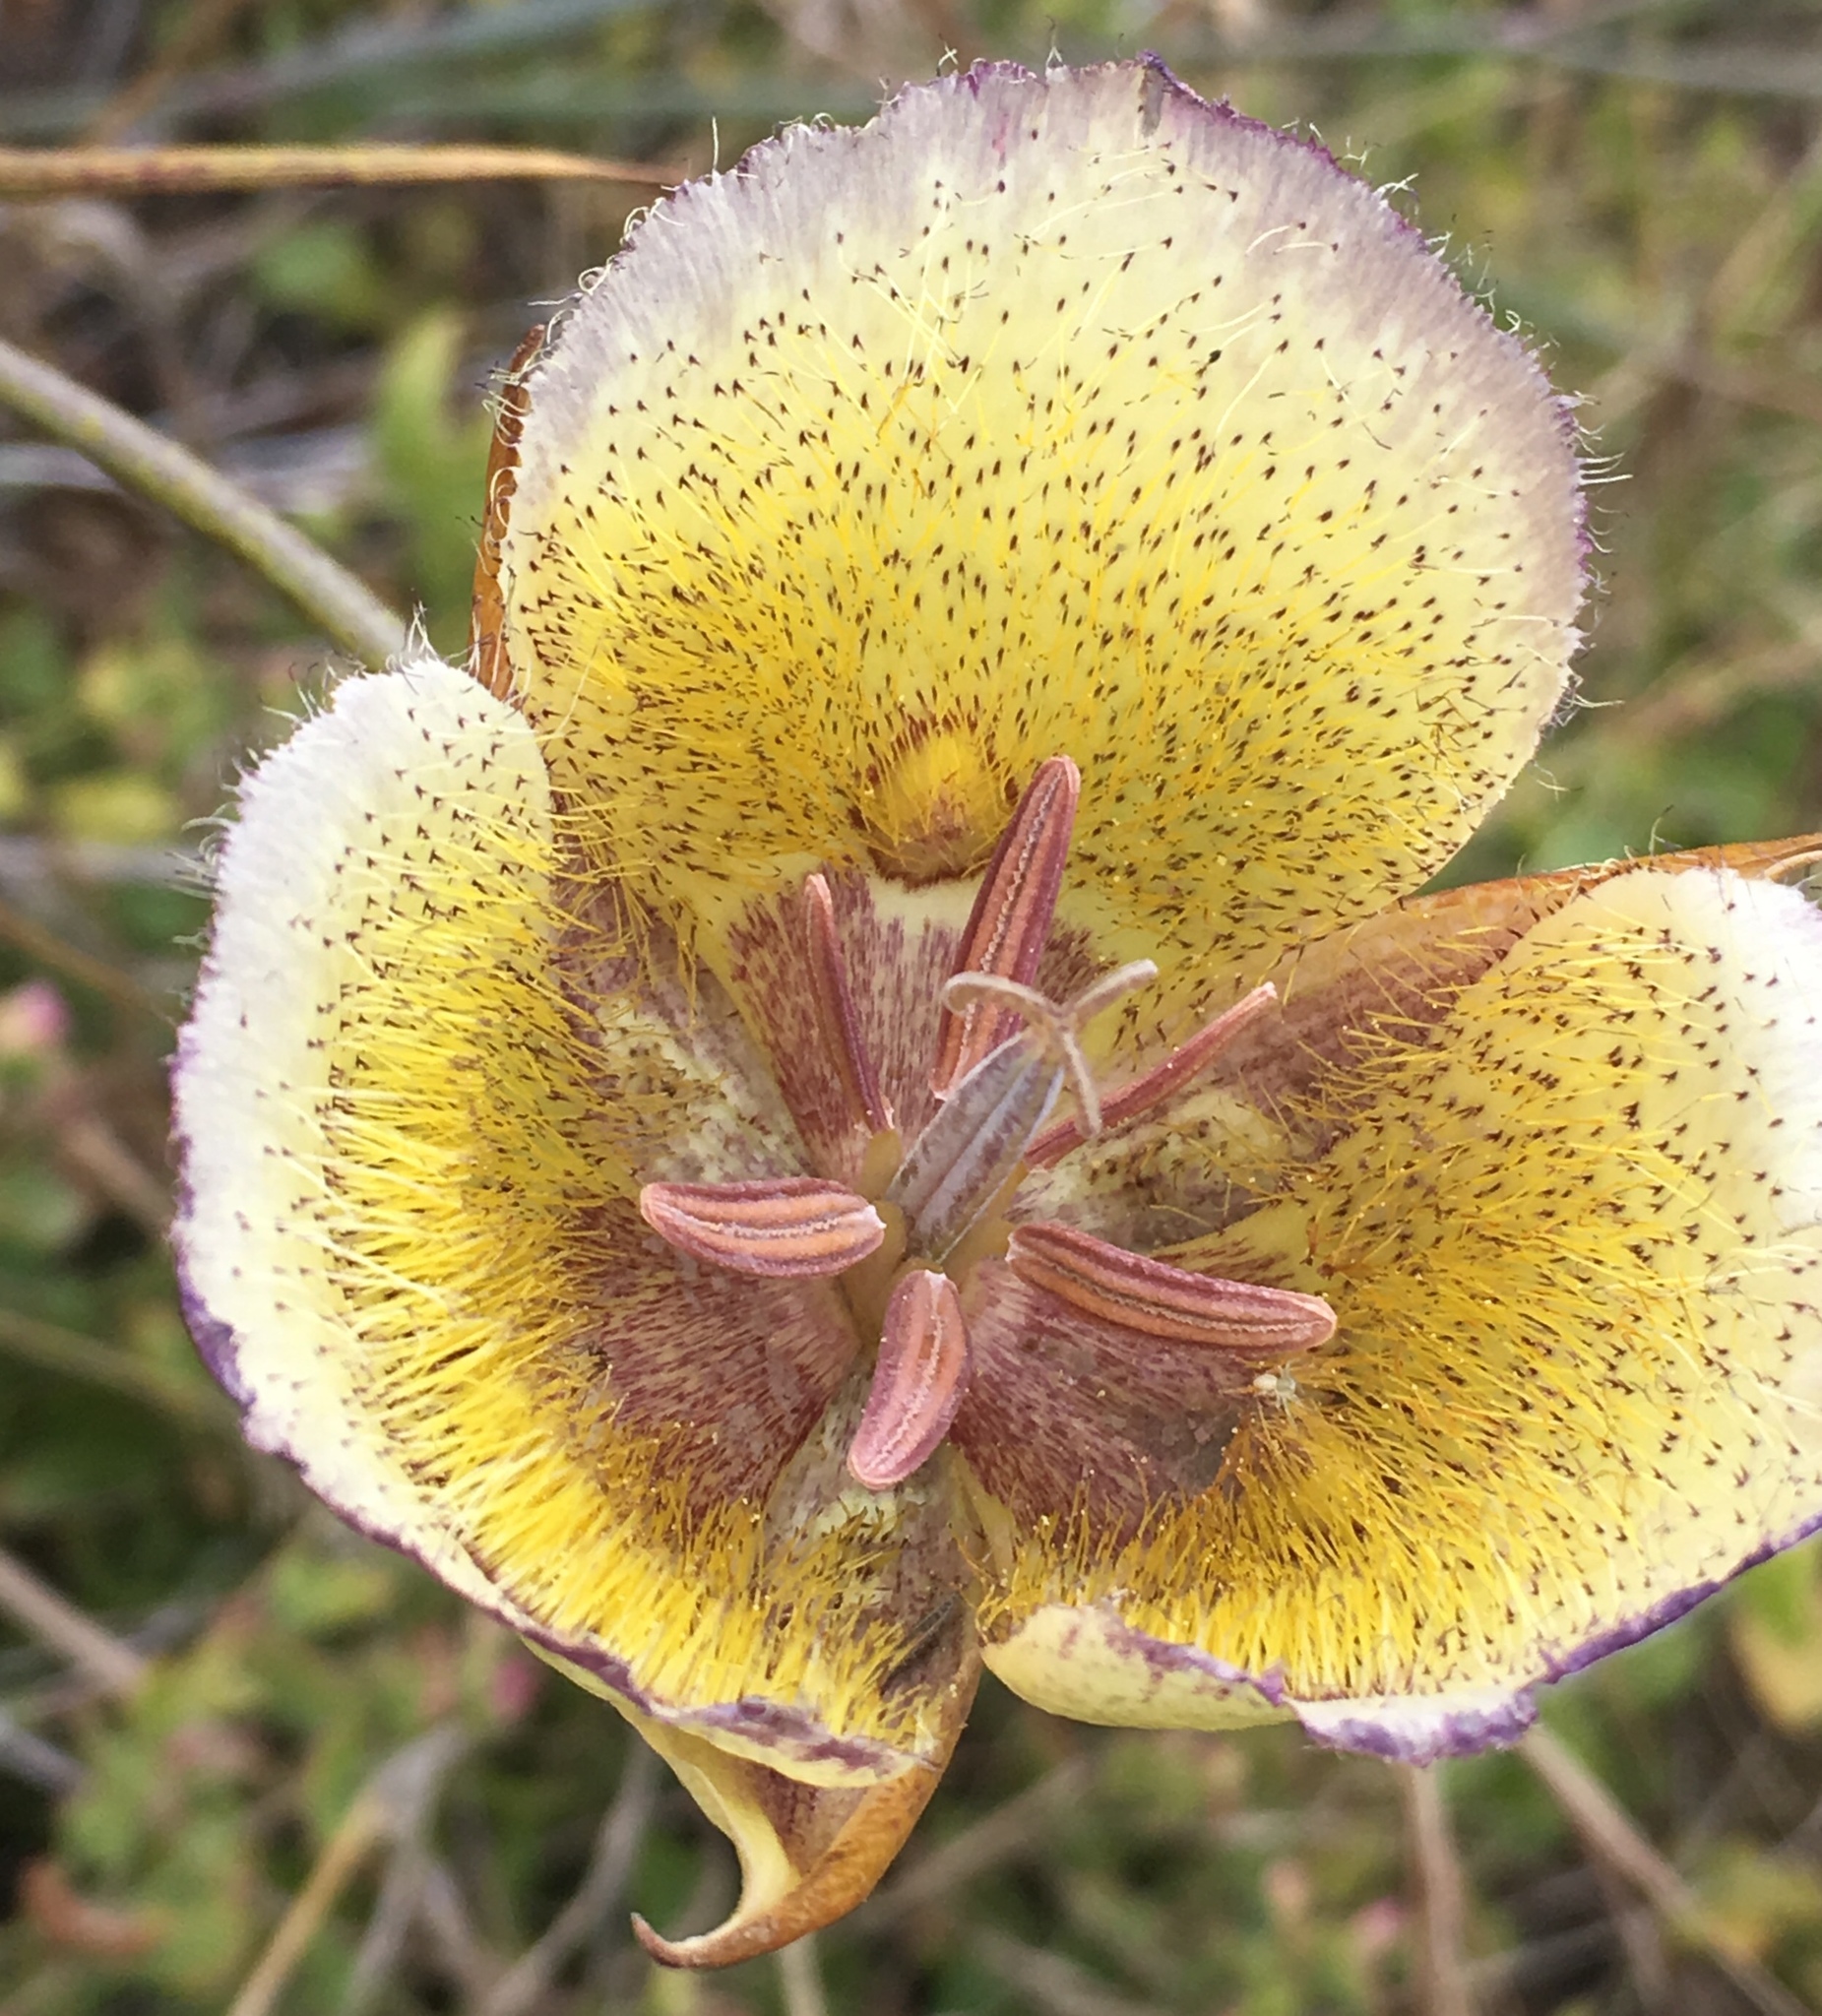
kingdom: Plantae
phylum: Tracheophyta
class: Liliopsida
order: Liliales
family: Liliaceae
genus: Calochortus
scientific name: Calochortus weedii
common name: Weed's mariposa-lily
